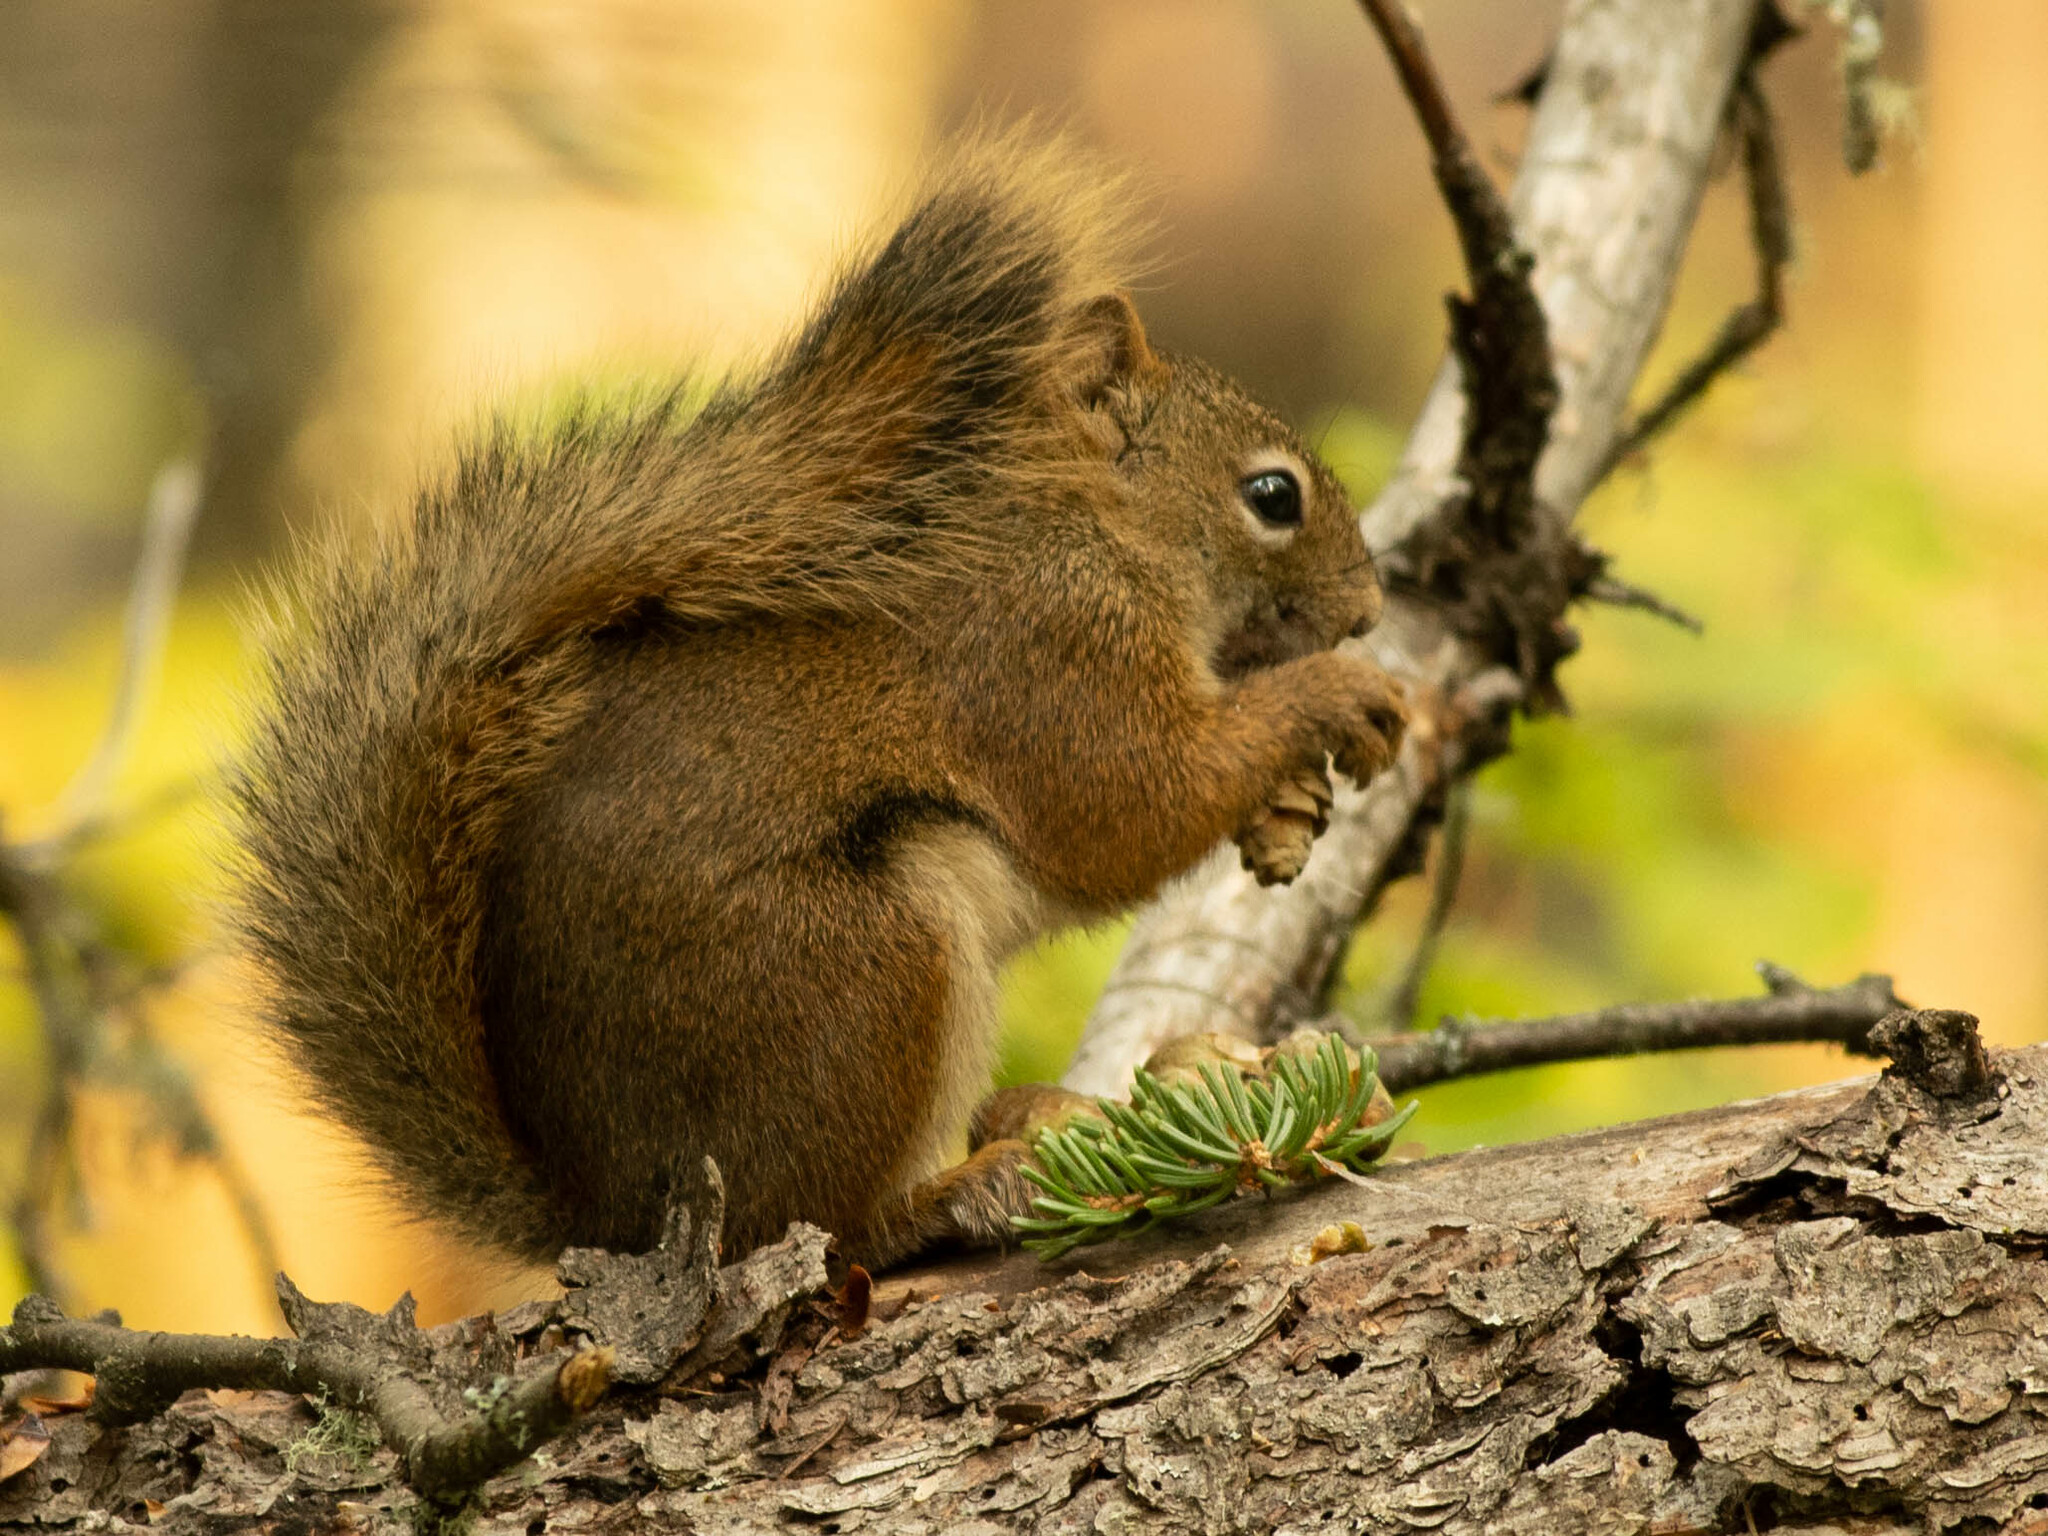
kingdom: Animalia
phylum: Chordata
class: Mammalia
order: Rodentia
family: Sciuridae
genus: Tamiasciurus
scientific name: Tamiasciurus hudsonicus
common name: Red squirrel
